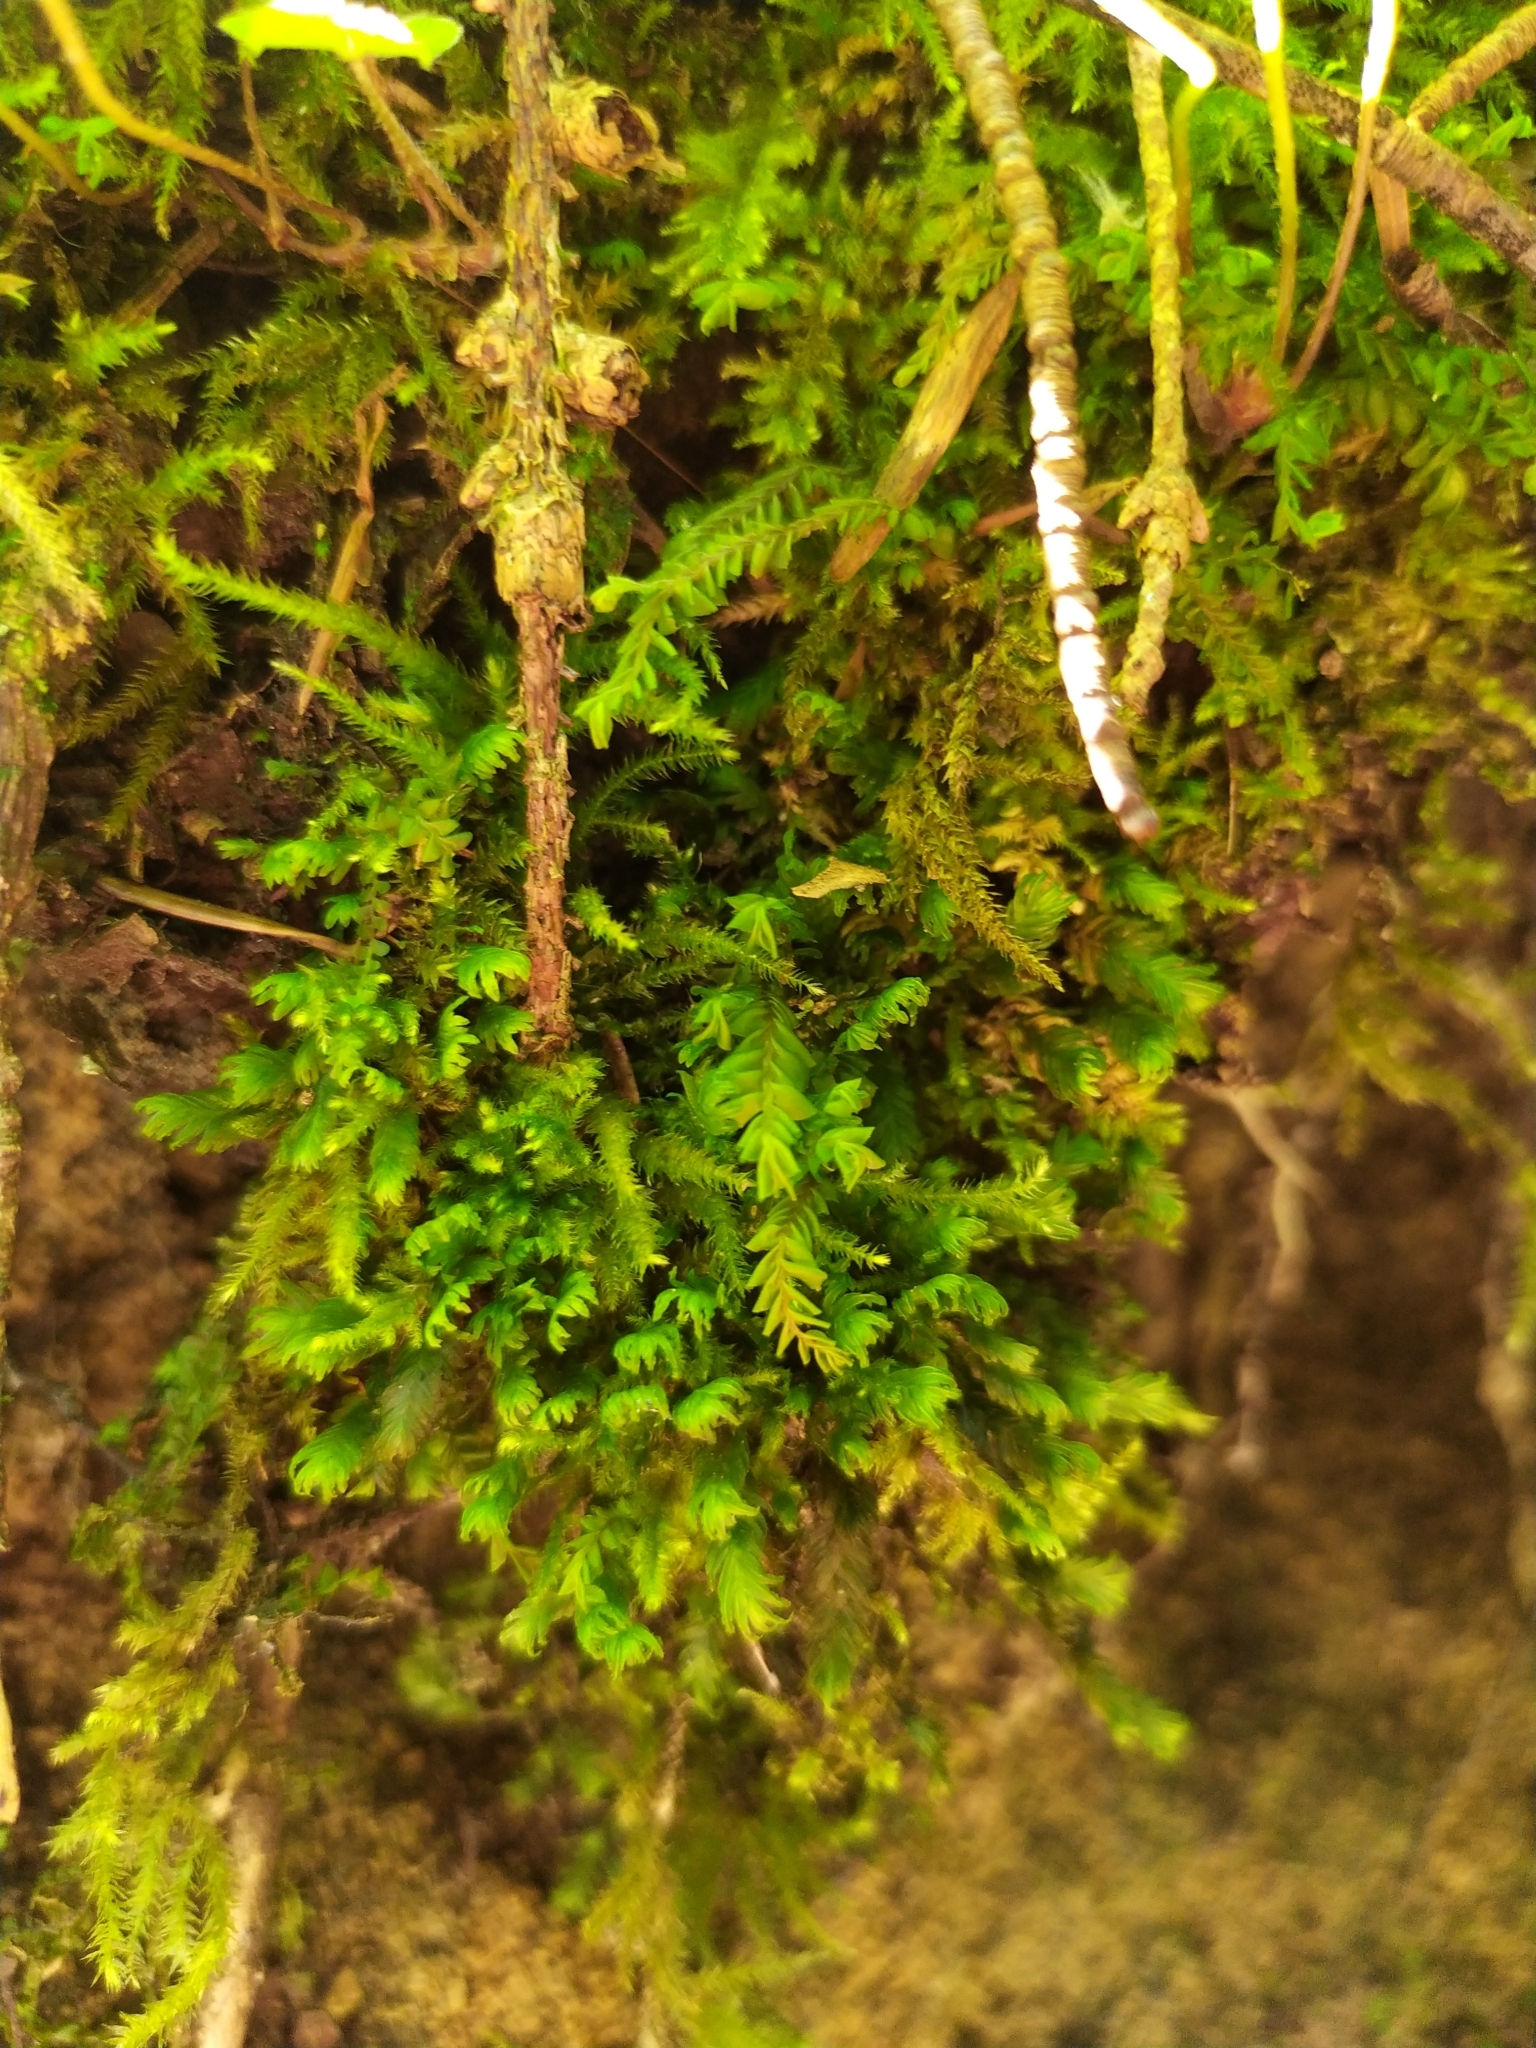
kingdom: Plantae
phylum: Marchantiophyta
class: Jungermanniopsida
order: Jungermanniales
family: Plagiochilaceae
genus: Plagiochila
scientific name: Plagiochila porelloides
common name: Lesser featherwort
